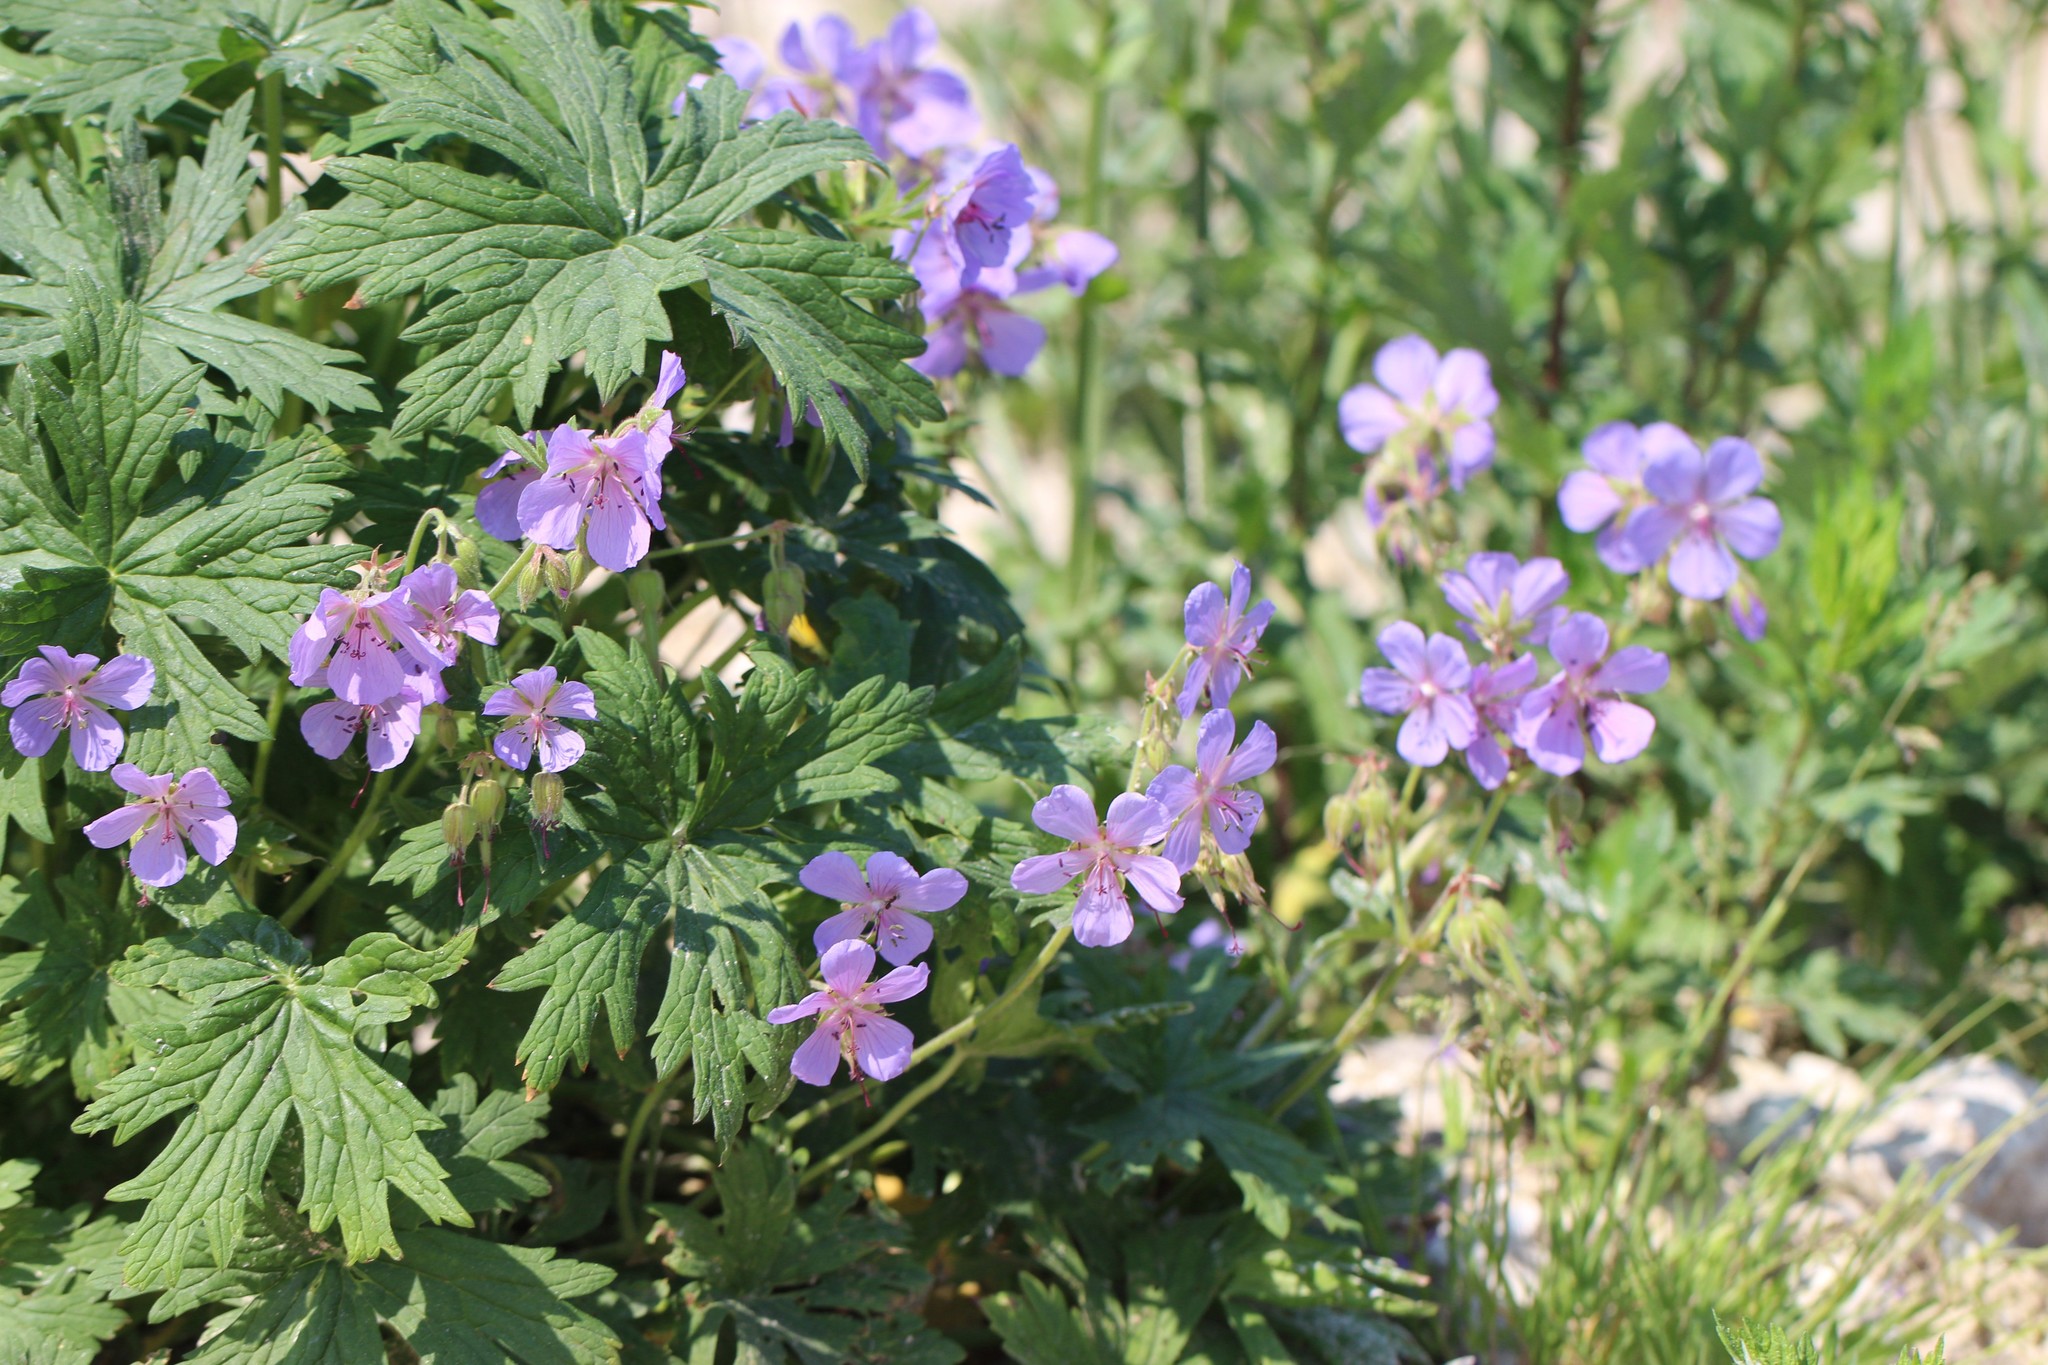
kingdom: Plantae
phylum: Tracheophyta
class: Magnoliopsida
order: Geraniales
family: Geraniaceae
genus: Geranium
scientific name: Geranium pratense
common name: Meadow crane's-bill
